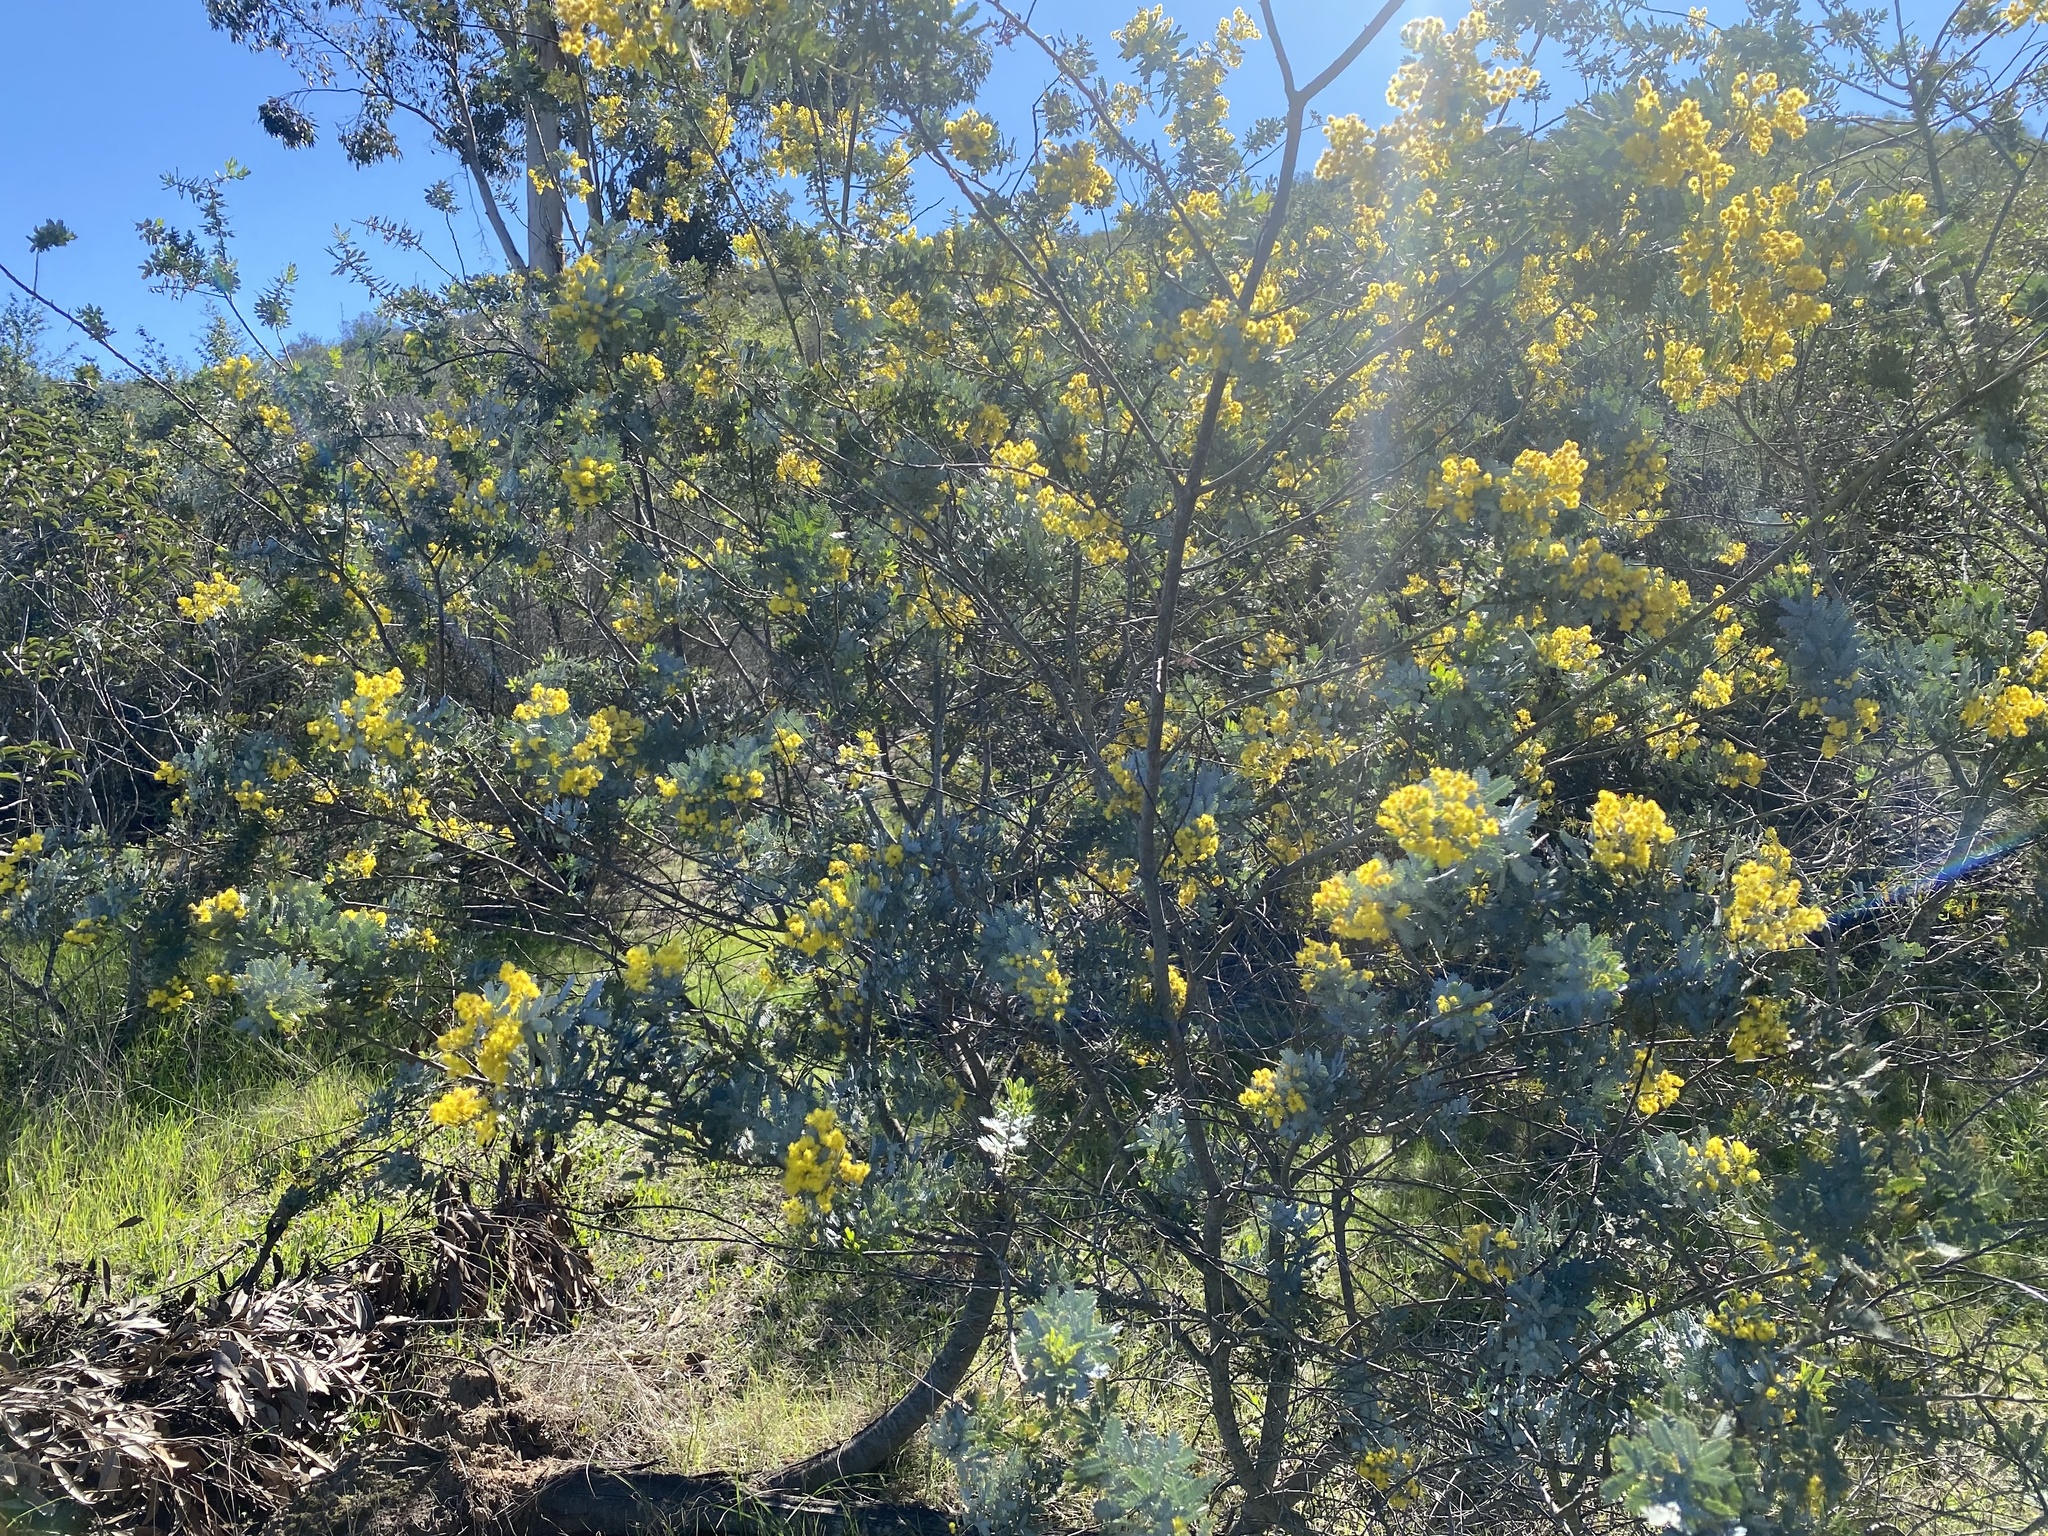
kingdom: Plantae
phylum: Tracheophyta
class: Magnoliopsida
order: Fabales
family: Fabaceae
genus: Acacia
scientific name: Acacia baileyana
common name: Cootamundra wattle
